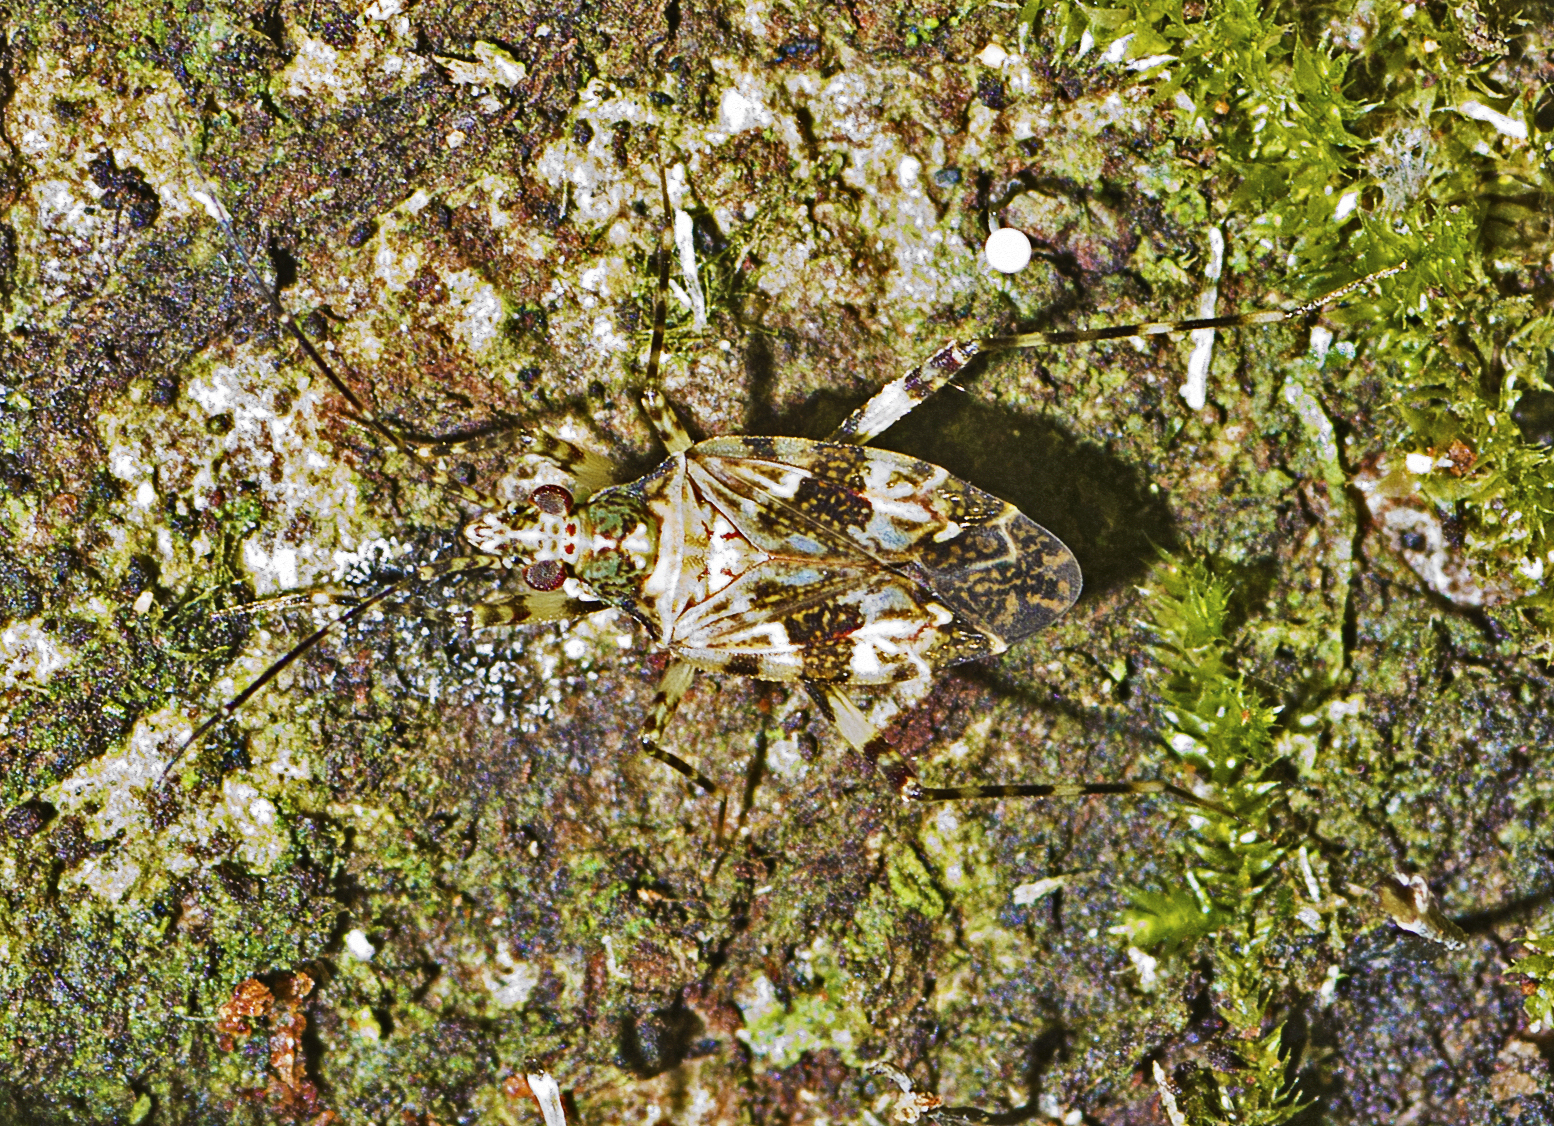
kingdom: Animalia
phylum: Arthropoda
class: Insecta
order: Hemiptera
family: Miridae
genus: Ceratofulvius
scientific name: Ceratofulvius
